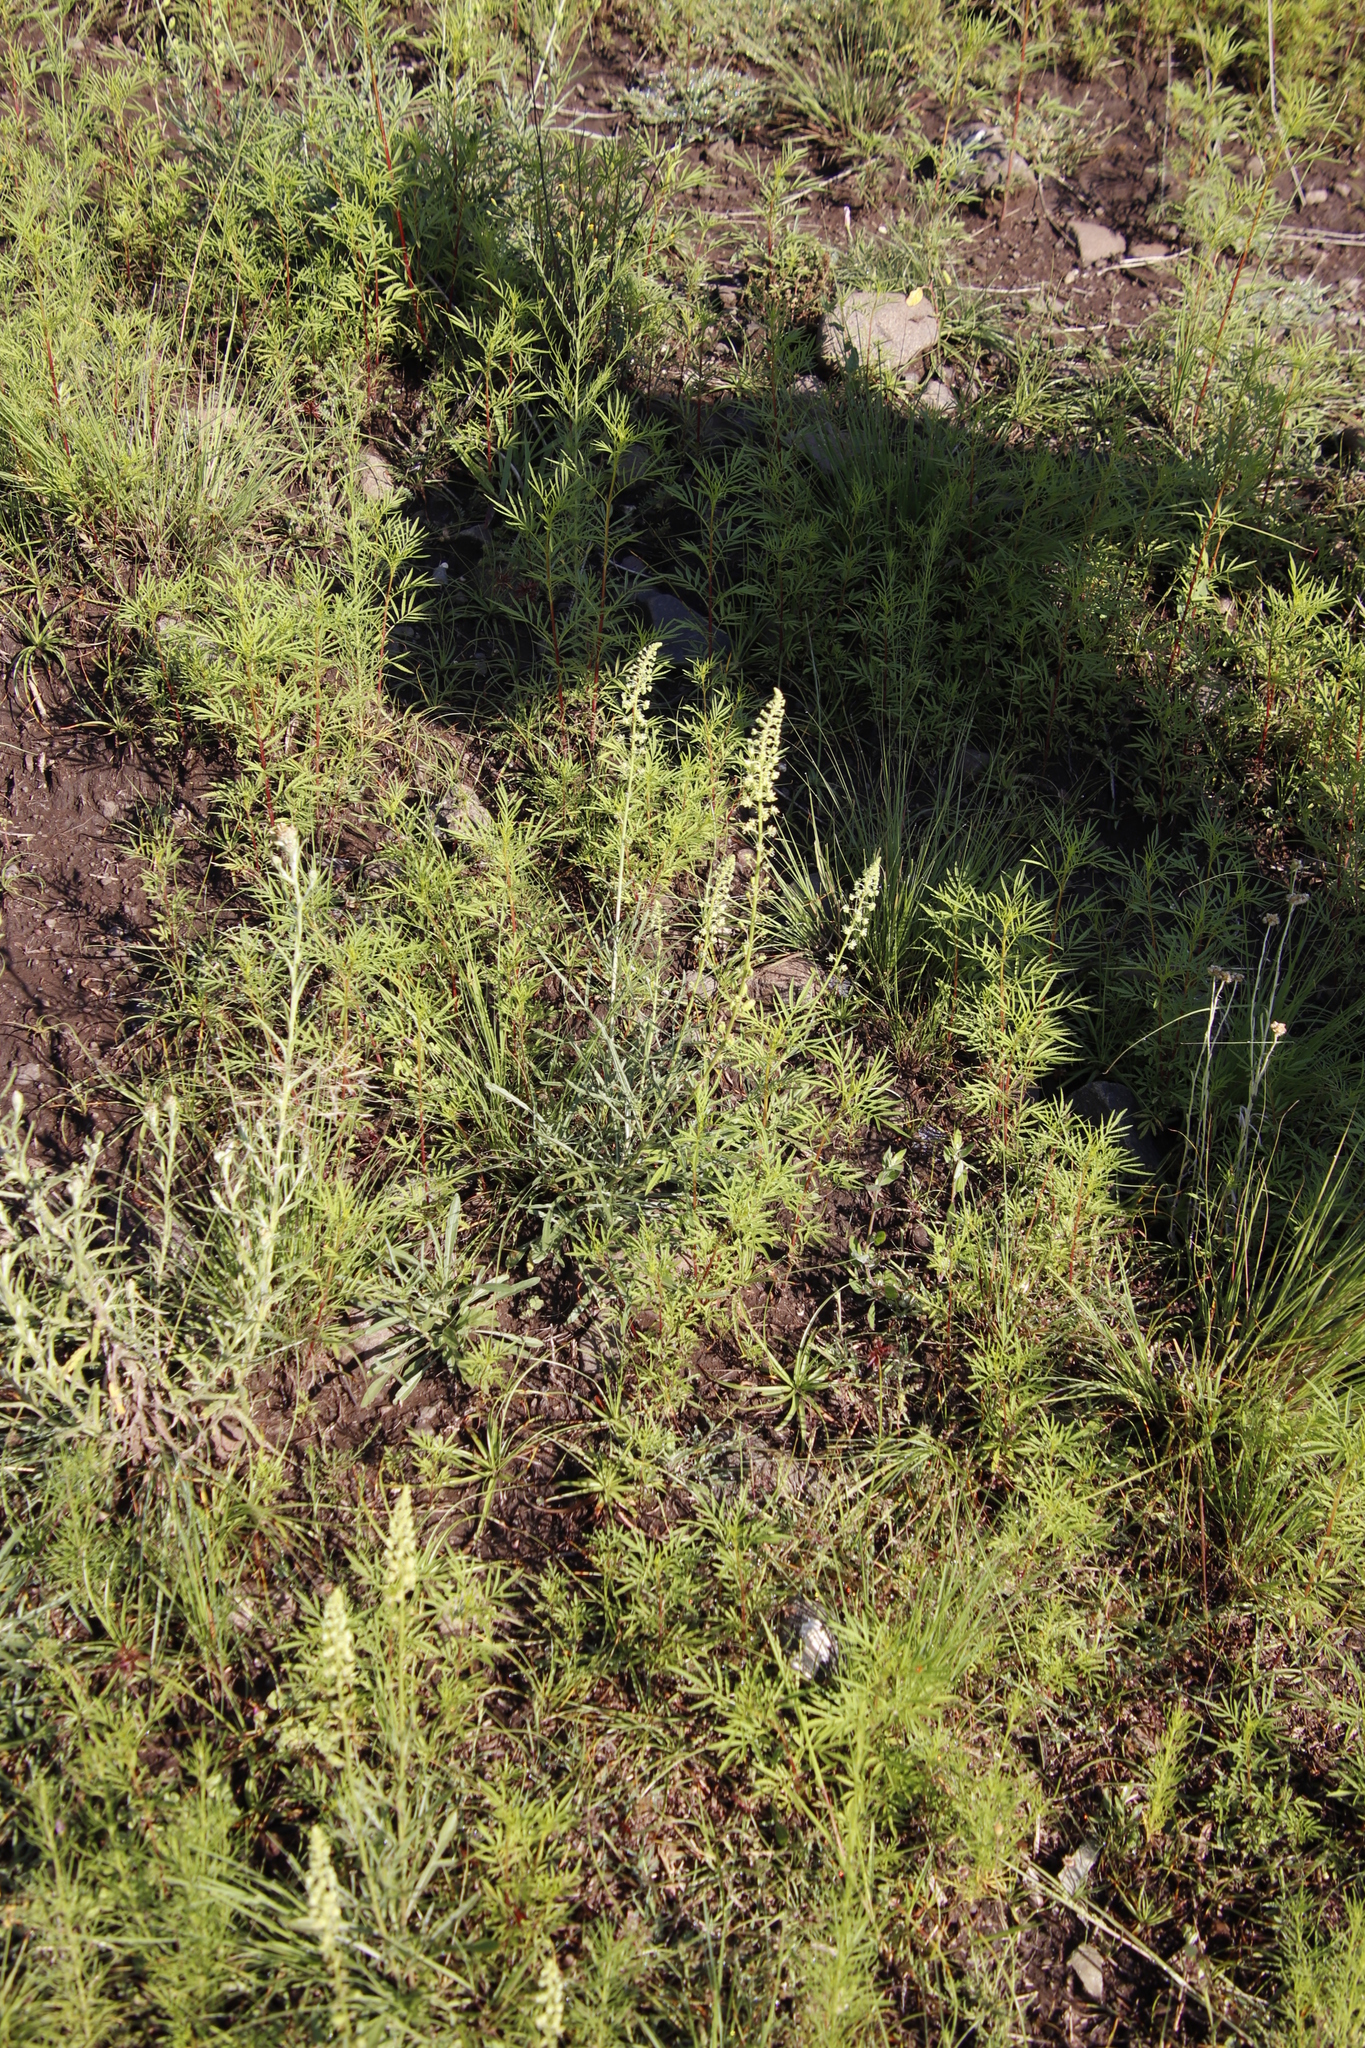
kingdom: Plantae
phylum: Tracheophyta
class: Magnoliopsida
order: Brassicales
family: Resedaceae
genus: Reseda
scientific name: Reseda lutea
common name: Wild mignonette
